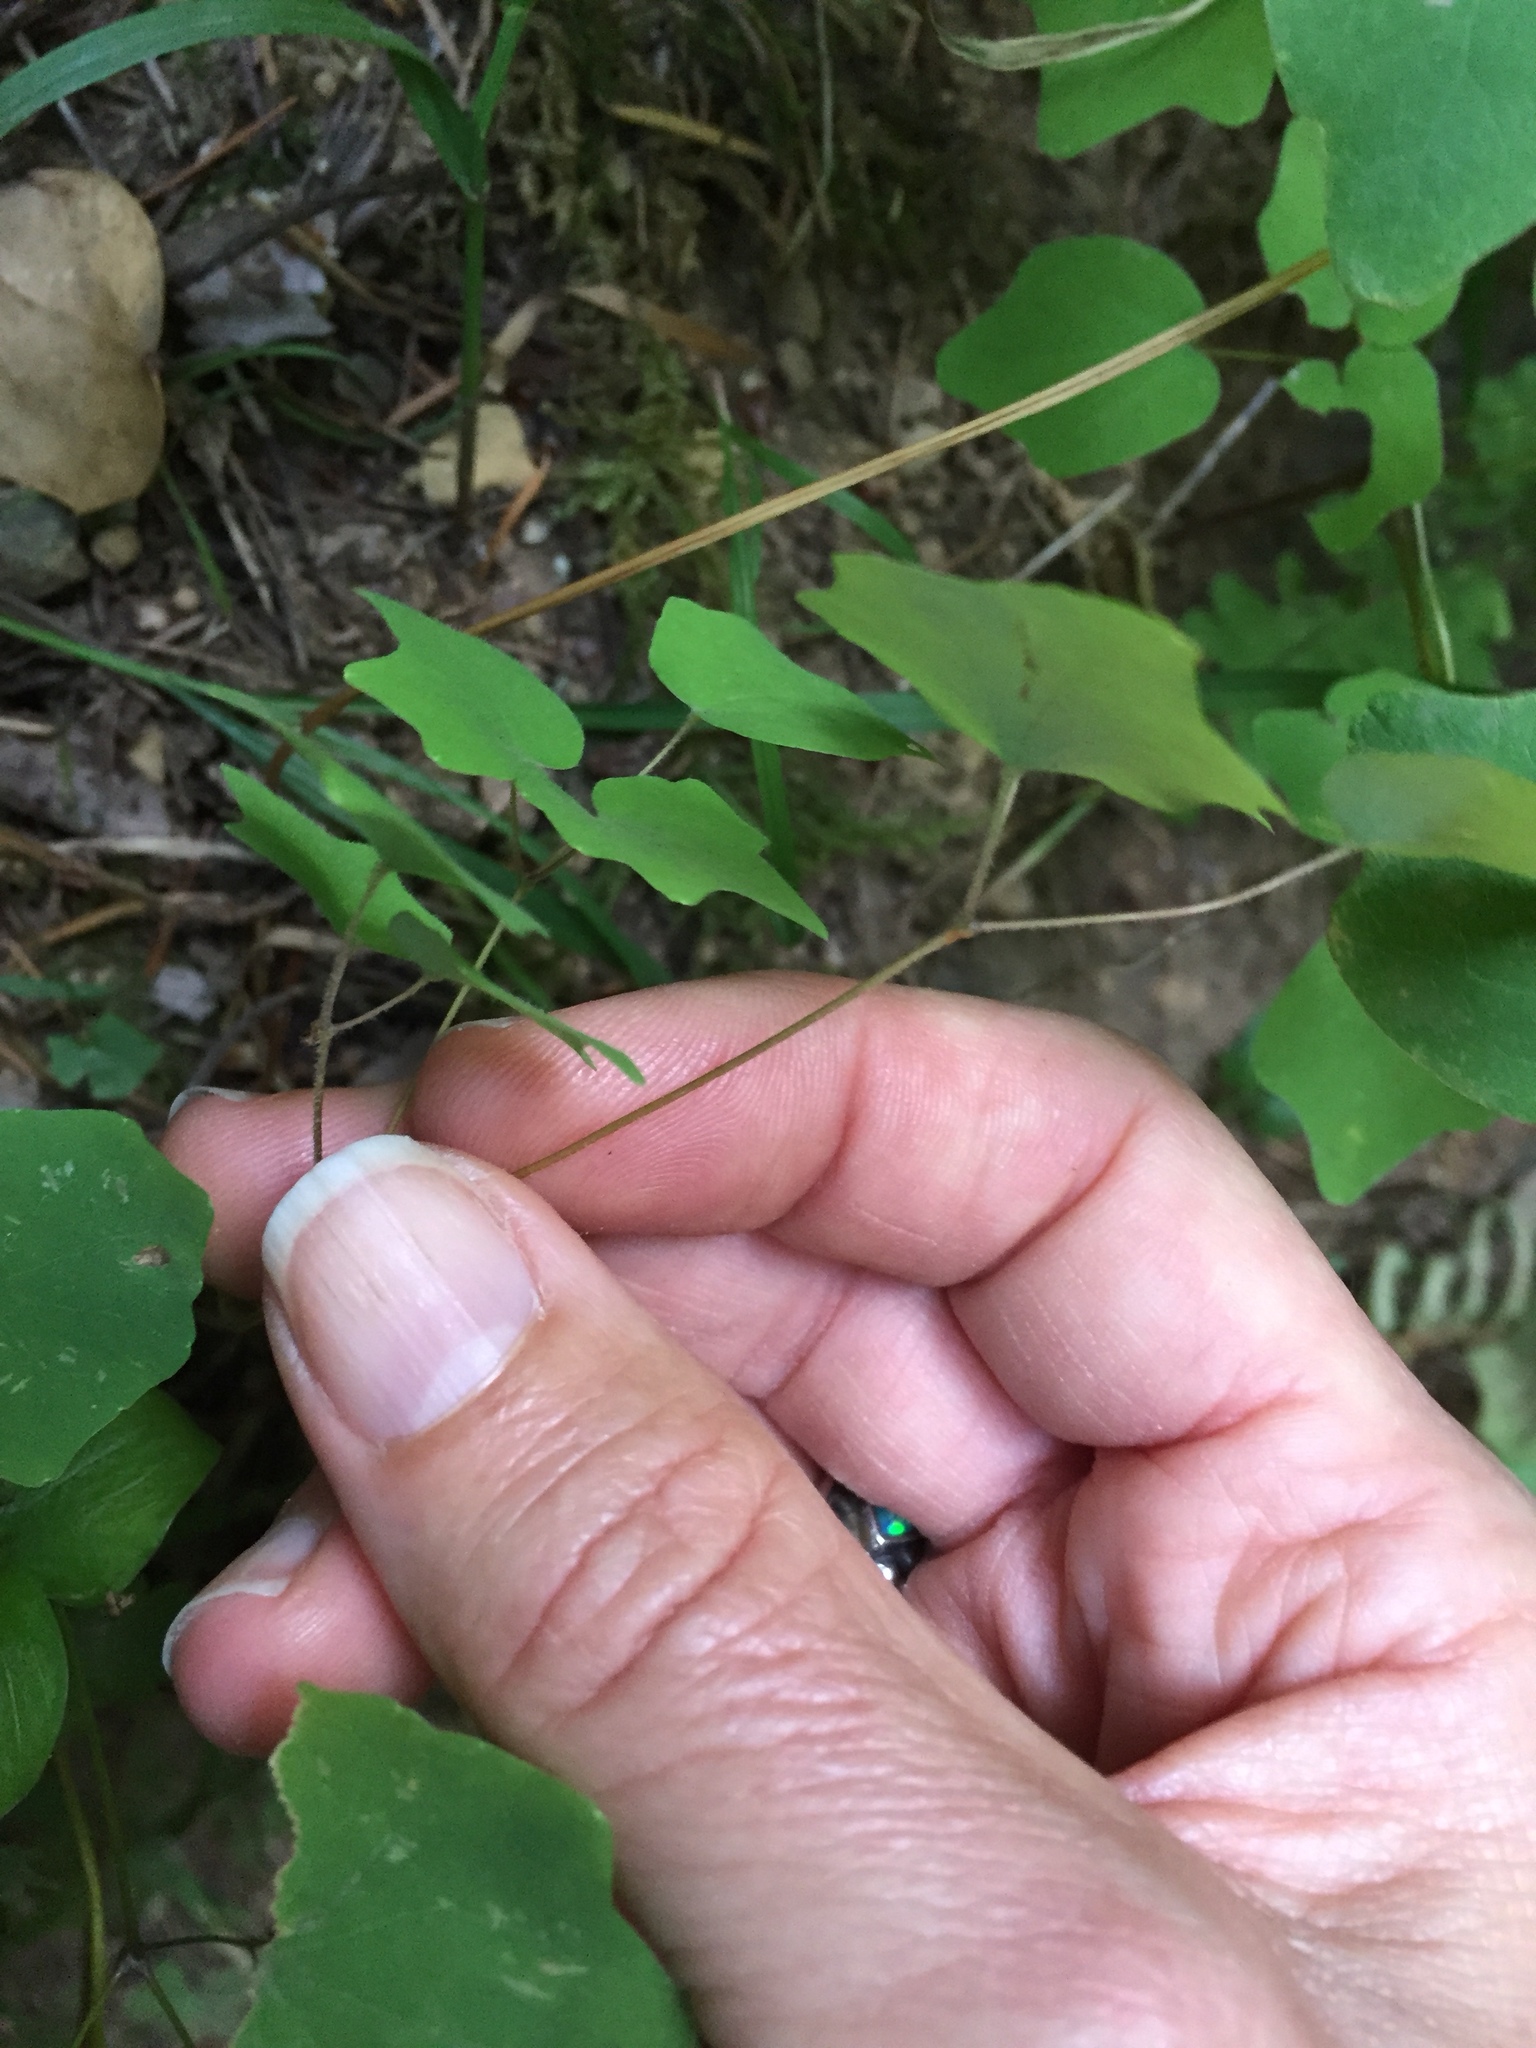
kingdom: Plantae
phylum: Tracheophyta
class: Magnoliopsida
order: Ranunculales
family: Berberidaceae
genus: Vancouveria
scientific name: Vancouveria hexandra
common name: Northern inside-out-flower
